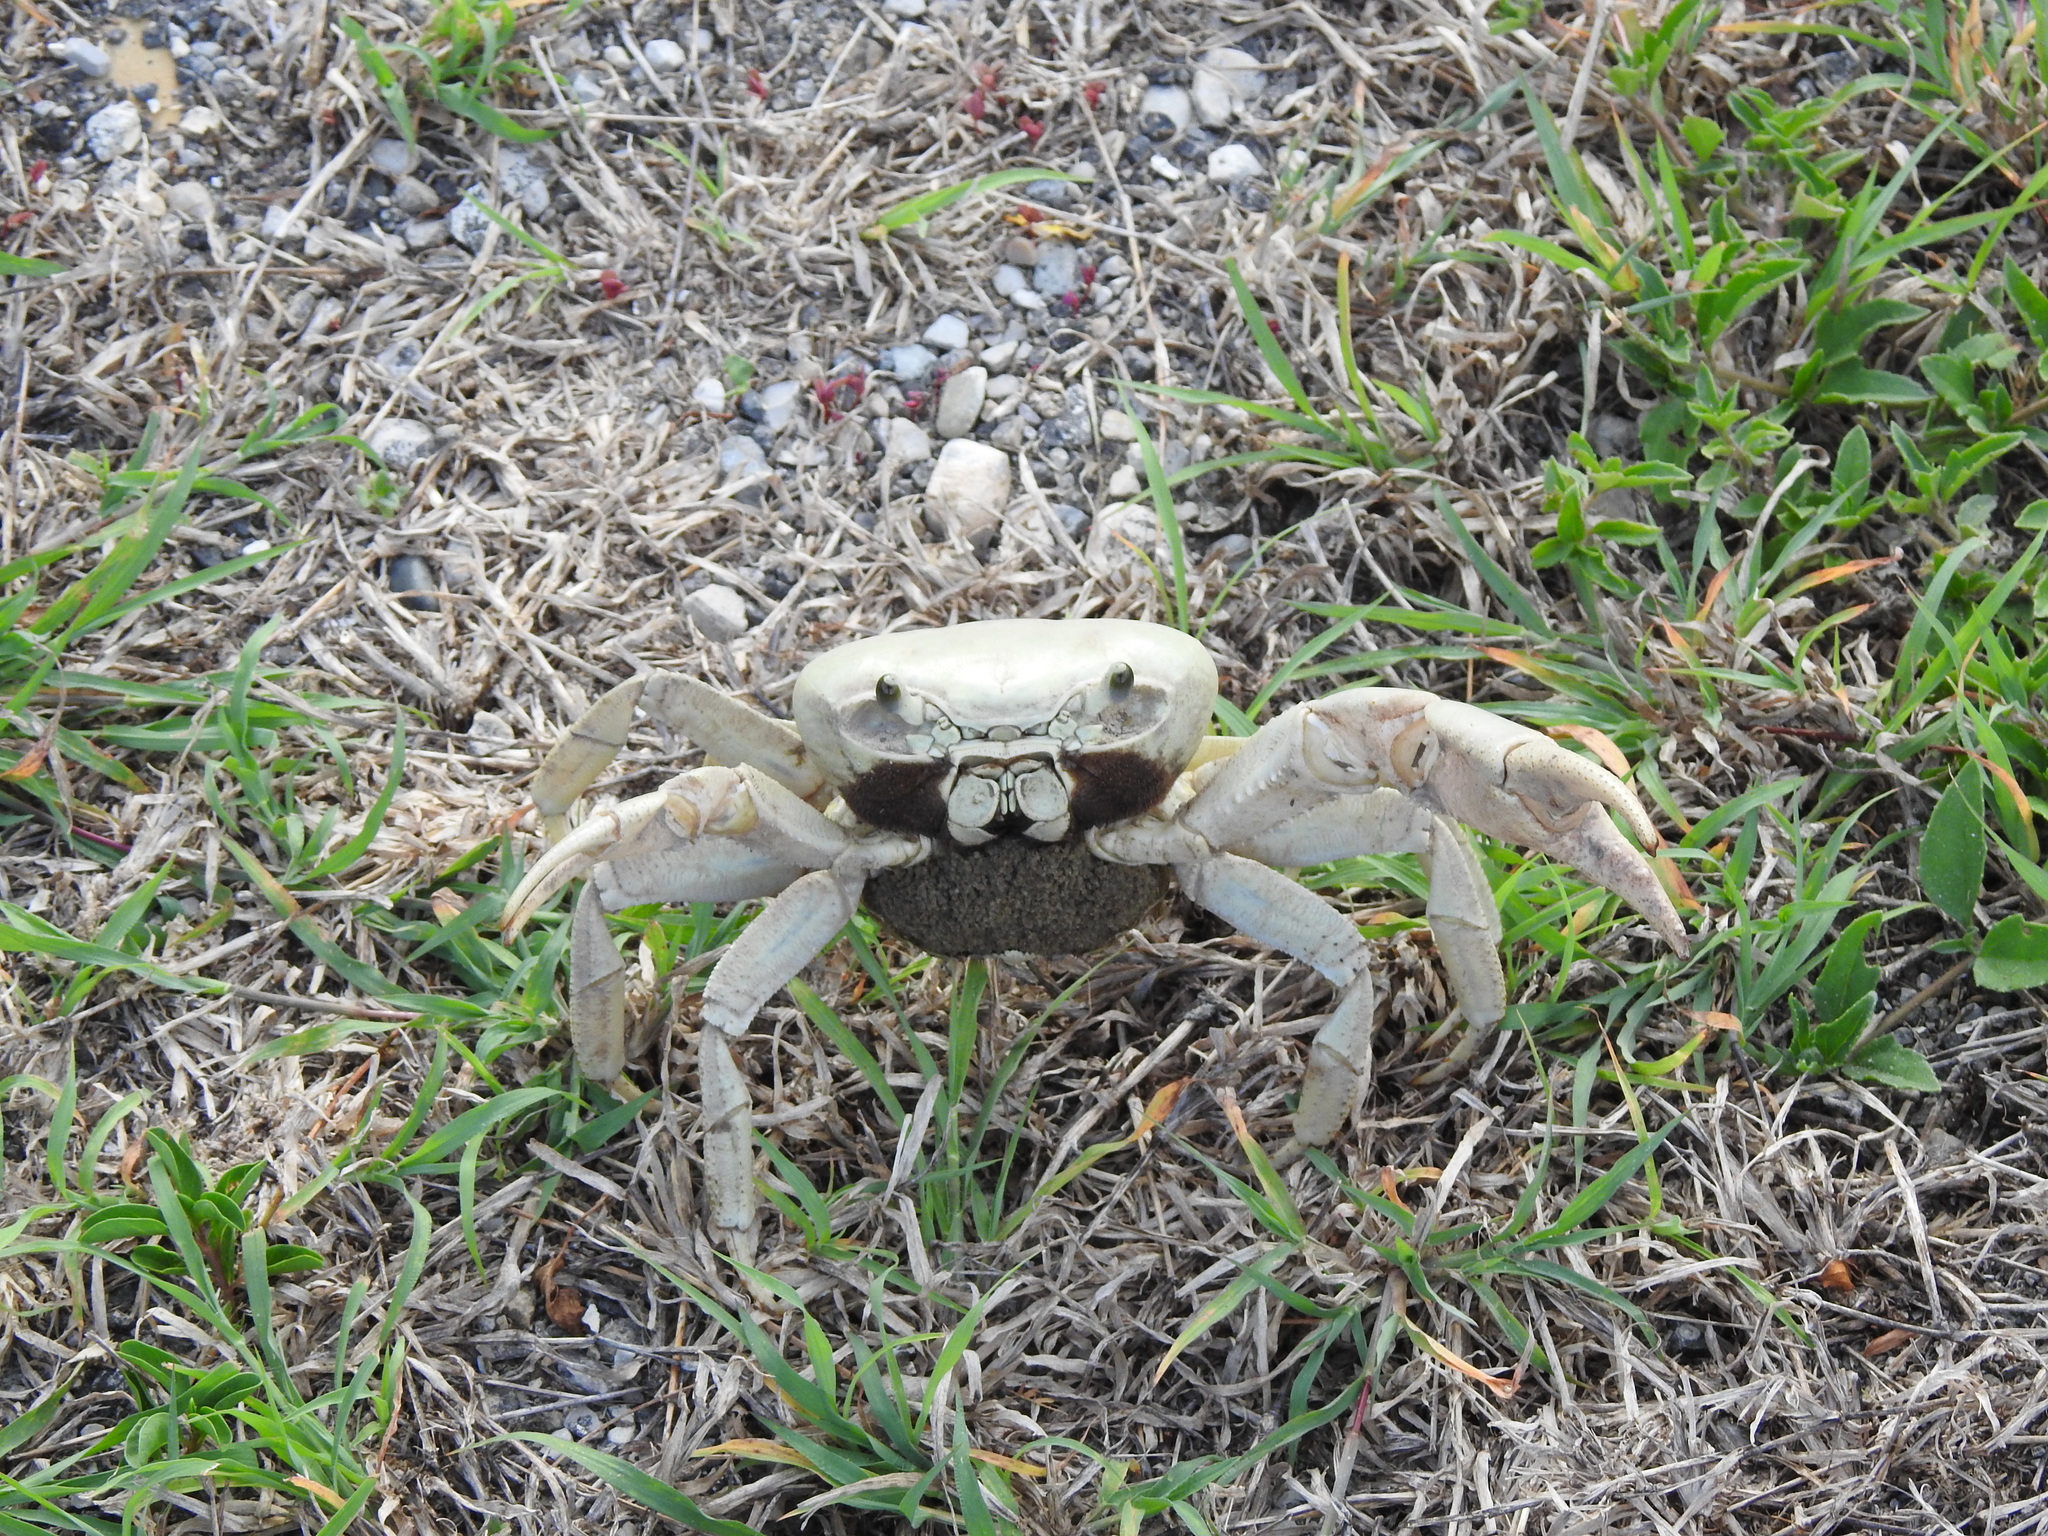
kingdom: Animalia
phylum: Arthropoda
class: Malacostraca
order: Decapoda
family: Gecarcinidae
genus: Cardisoma
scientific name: Cardisoma guanhumi
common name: Great land crab
